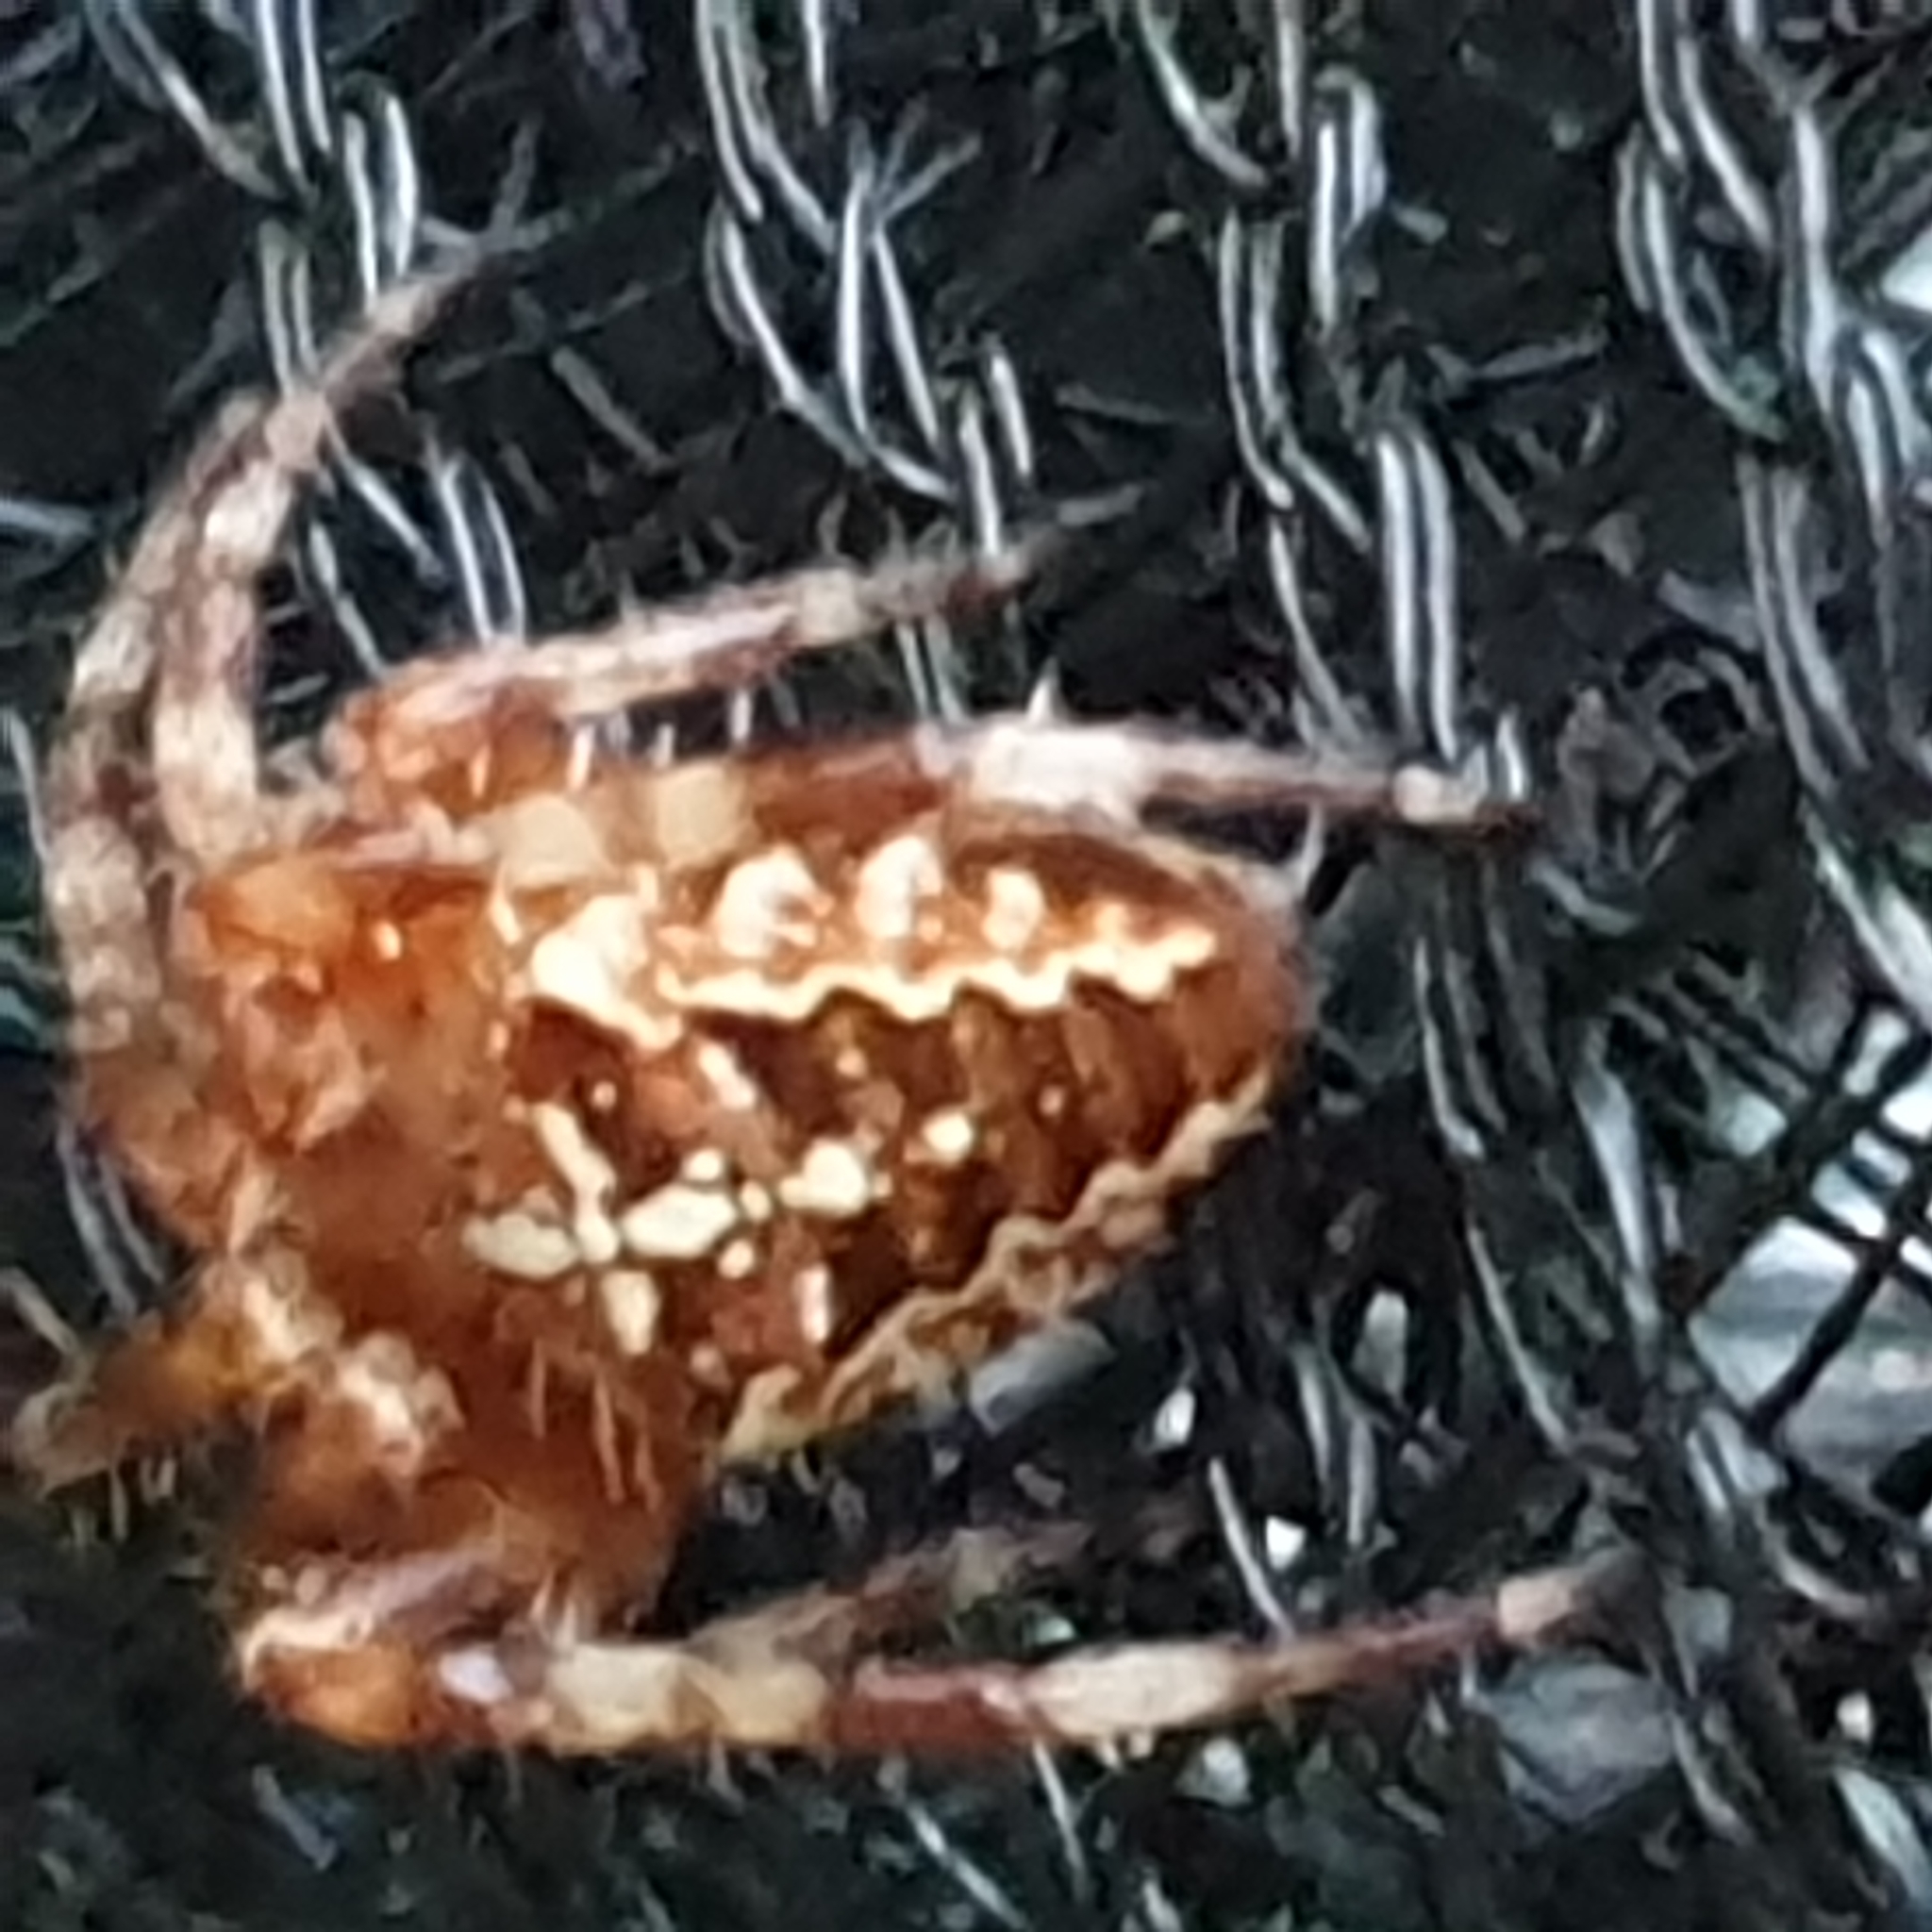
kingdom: Animalia
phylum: Arthropoda
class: Arachnida
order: Araneae
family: Araneidae
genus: Araneus
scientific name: Araneus diadematus
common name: Cross orbweaver
